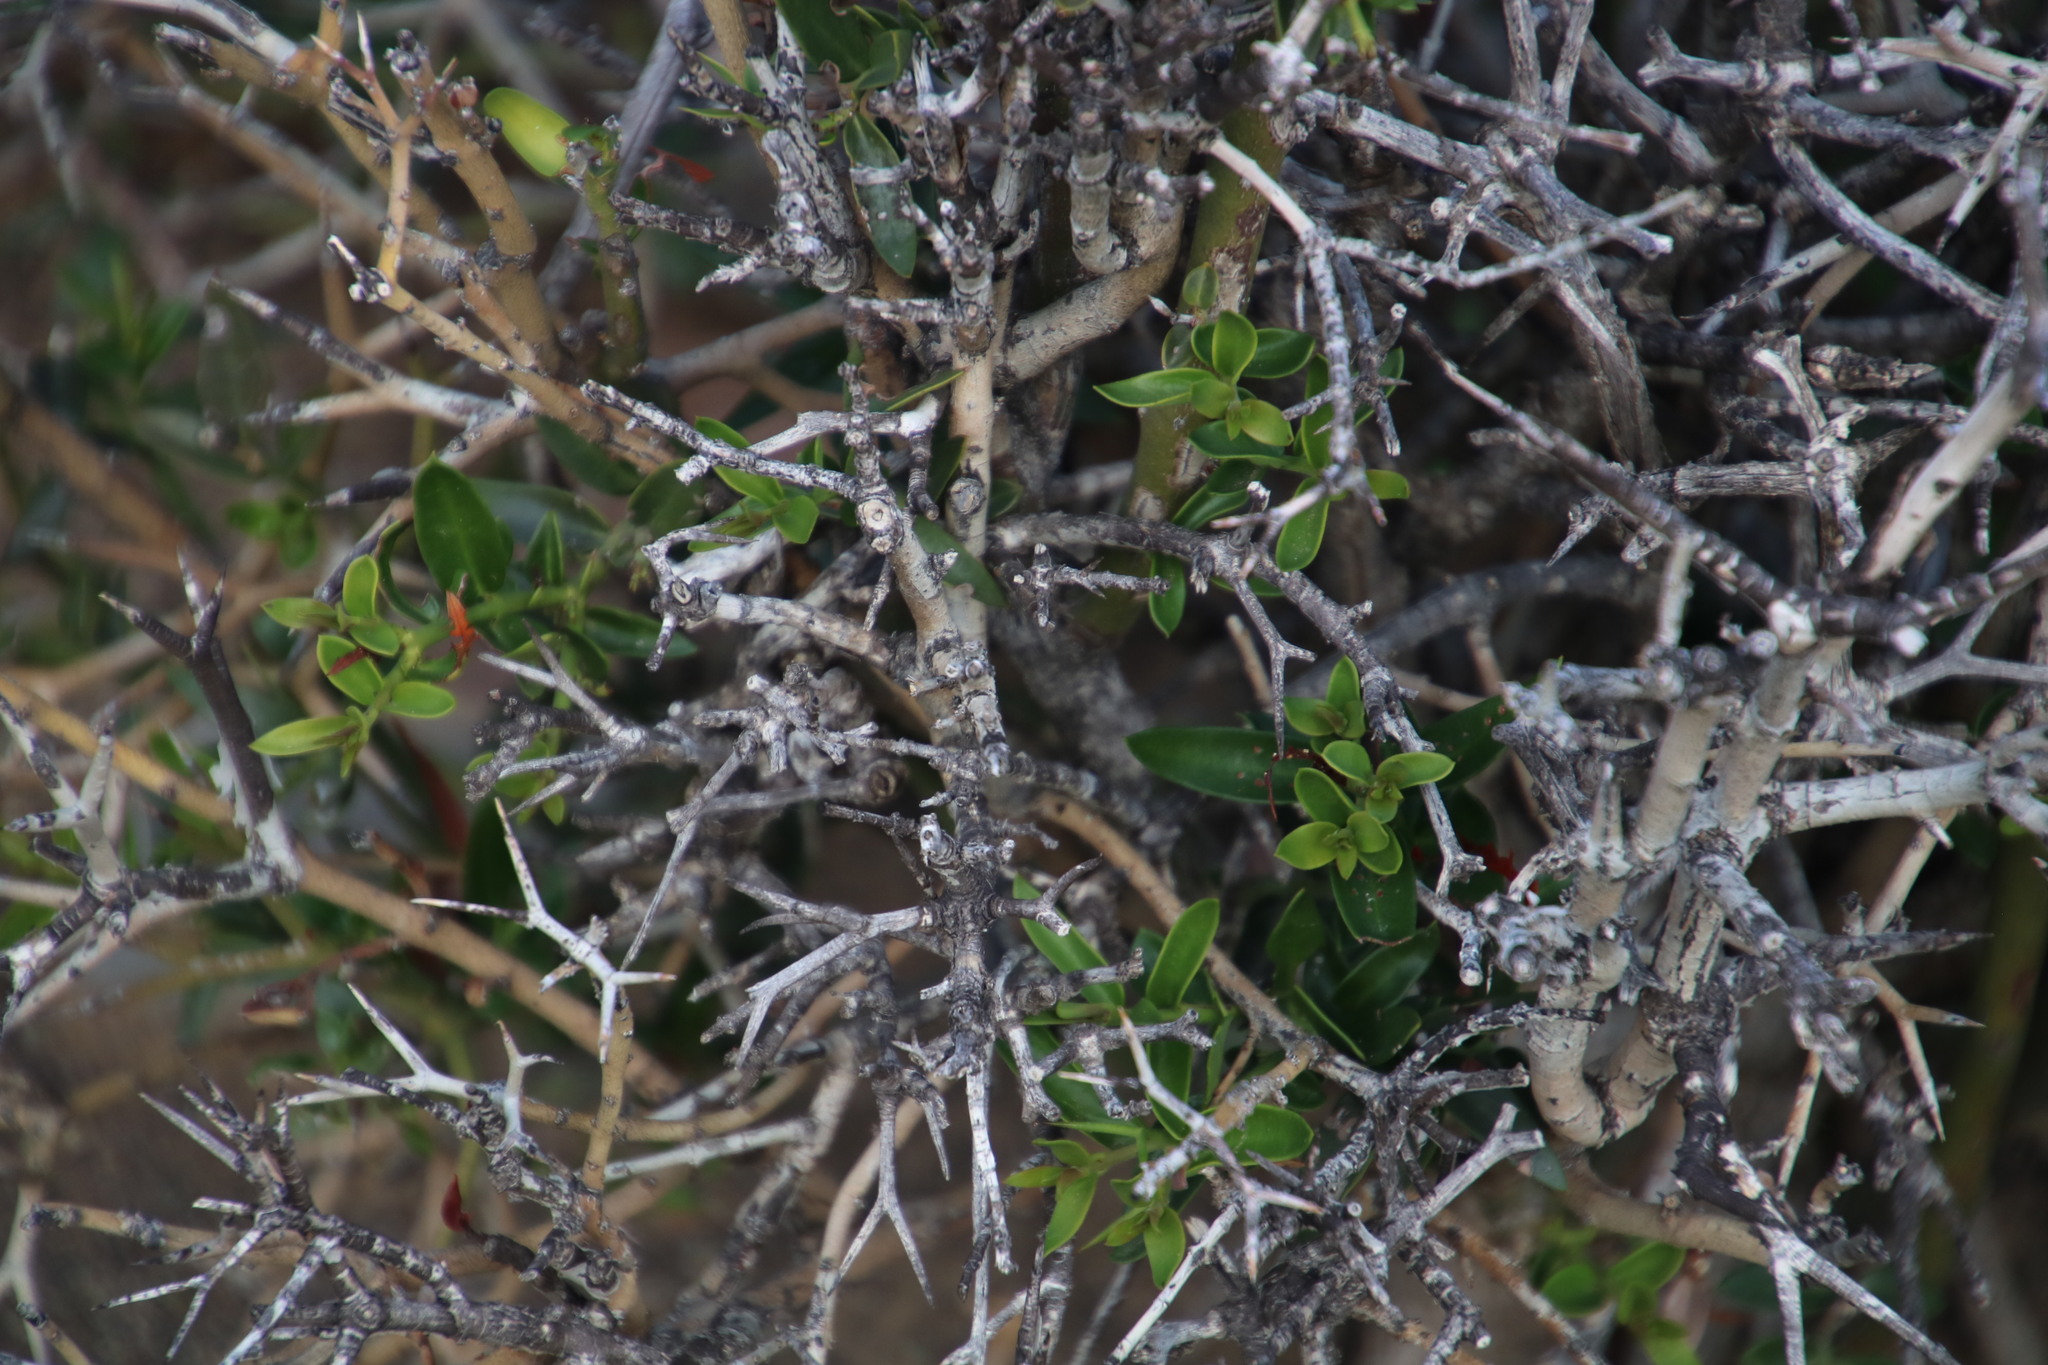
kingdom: Plantae
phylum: Tracheophyta
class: Magnoliopsida
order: Gentianales
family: Apocynaceae
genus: Carissa
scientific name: Carissa haematocarpa
